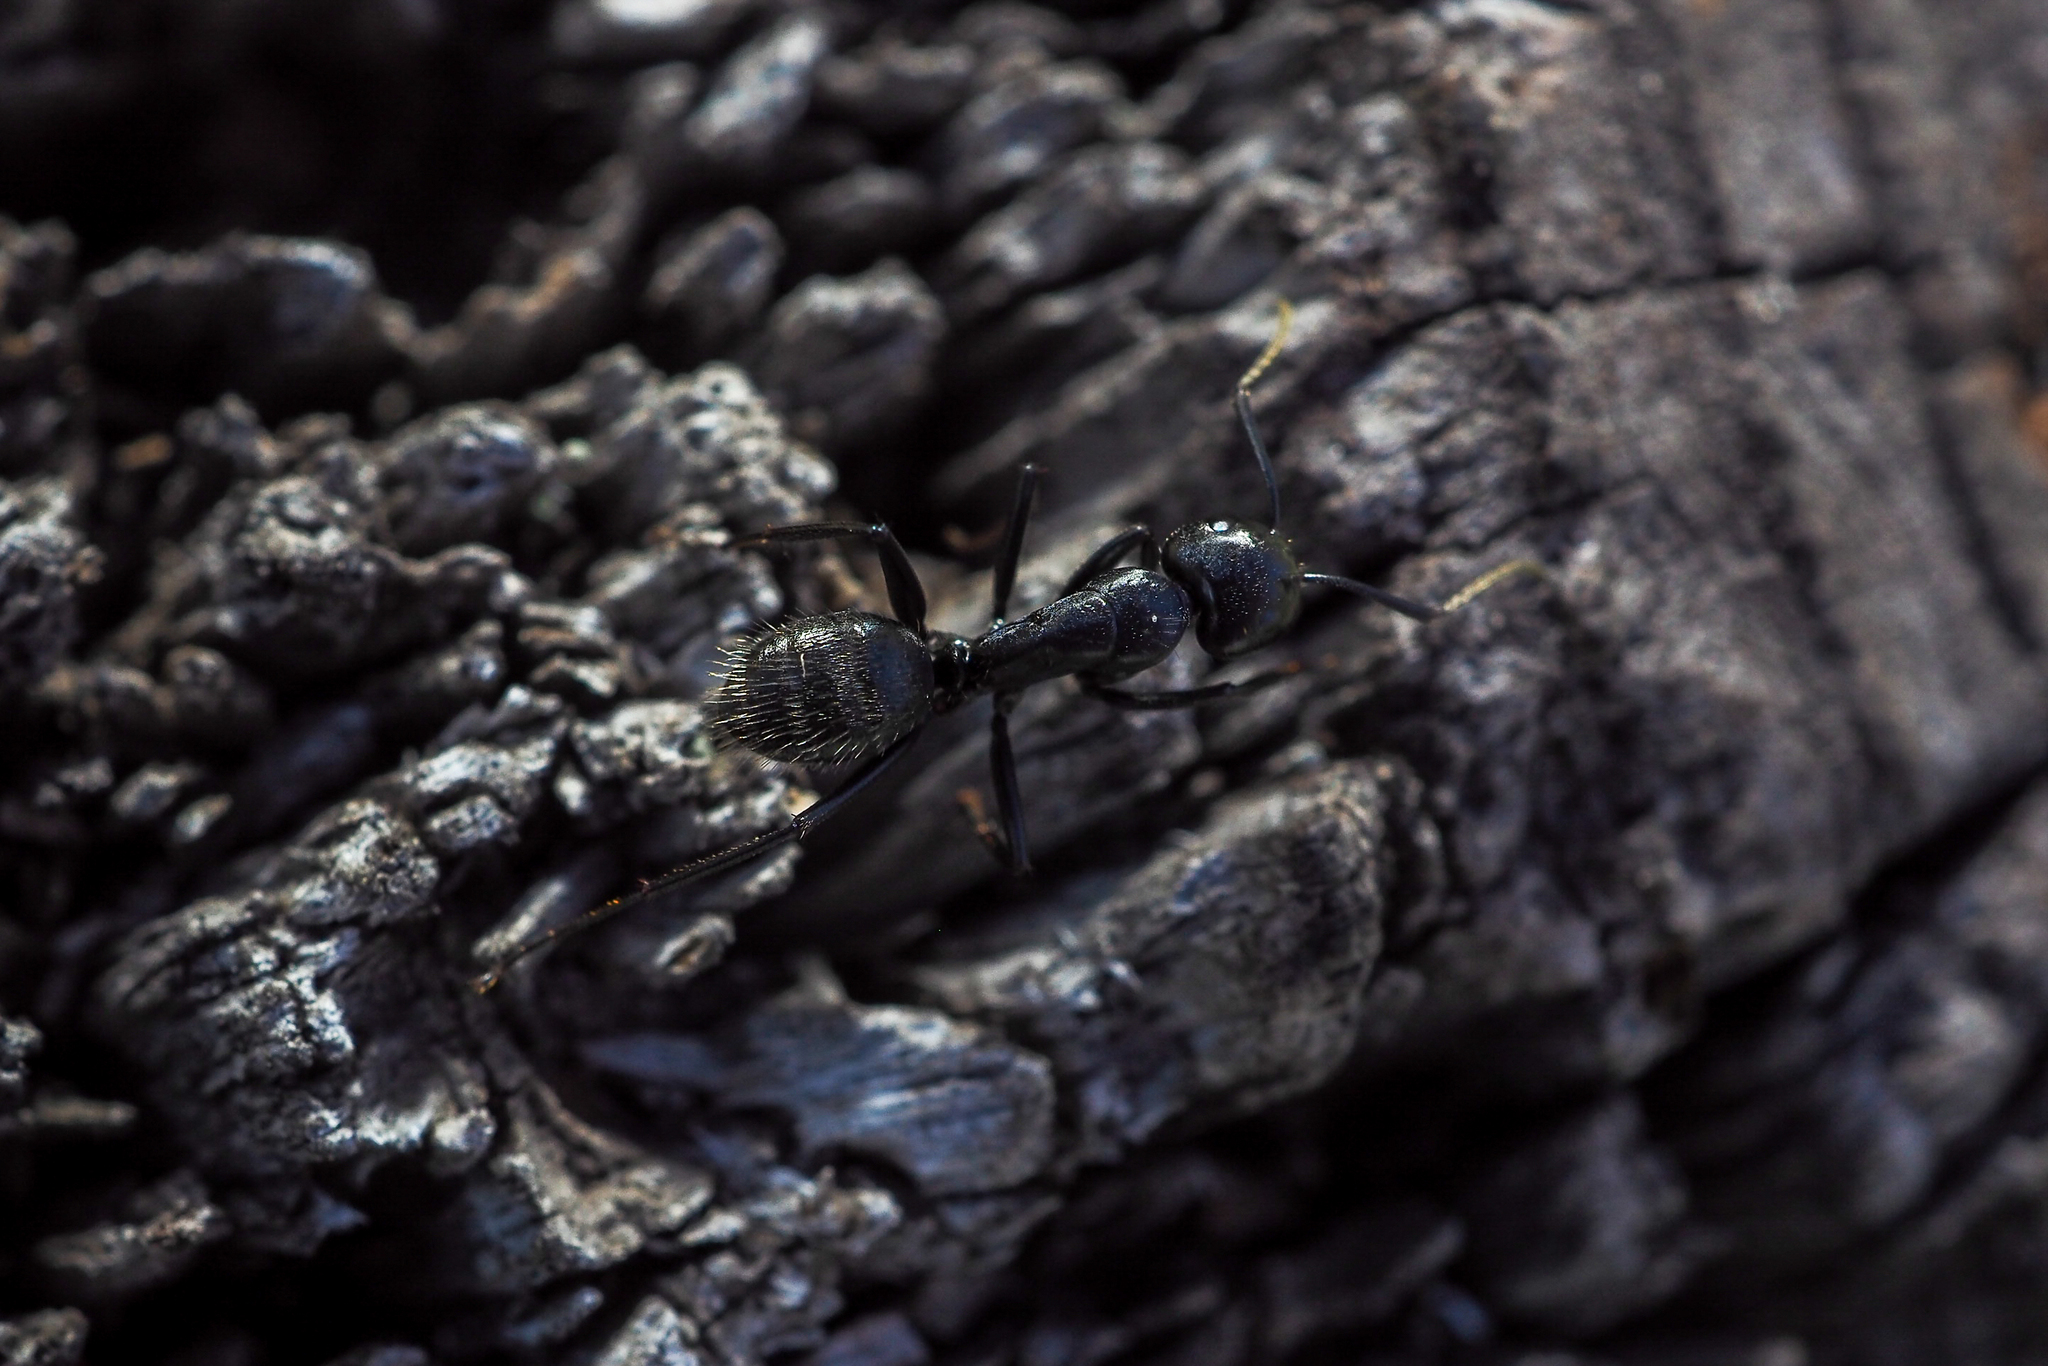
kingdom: Animalia
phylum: Arthropoda
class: Insecta
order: Hymenoptera
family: Formicidae
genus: Camponotus
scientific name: Camponotus vagus
